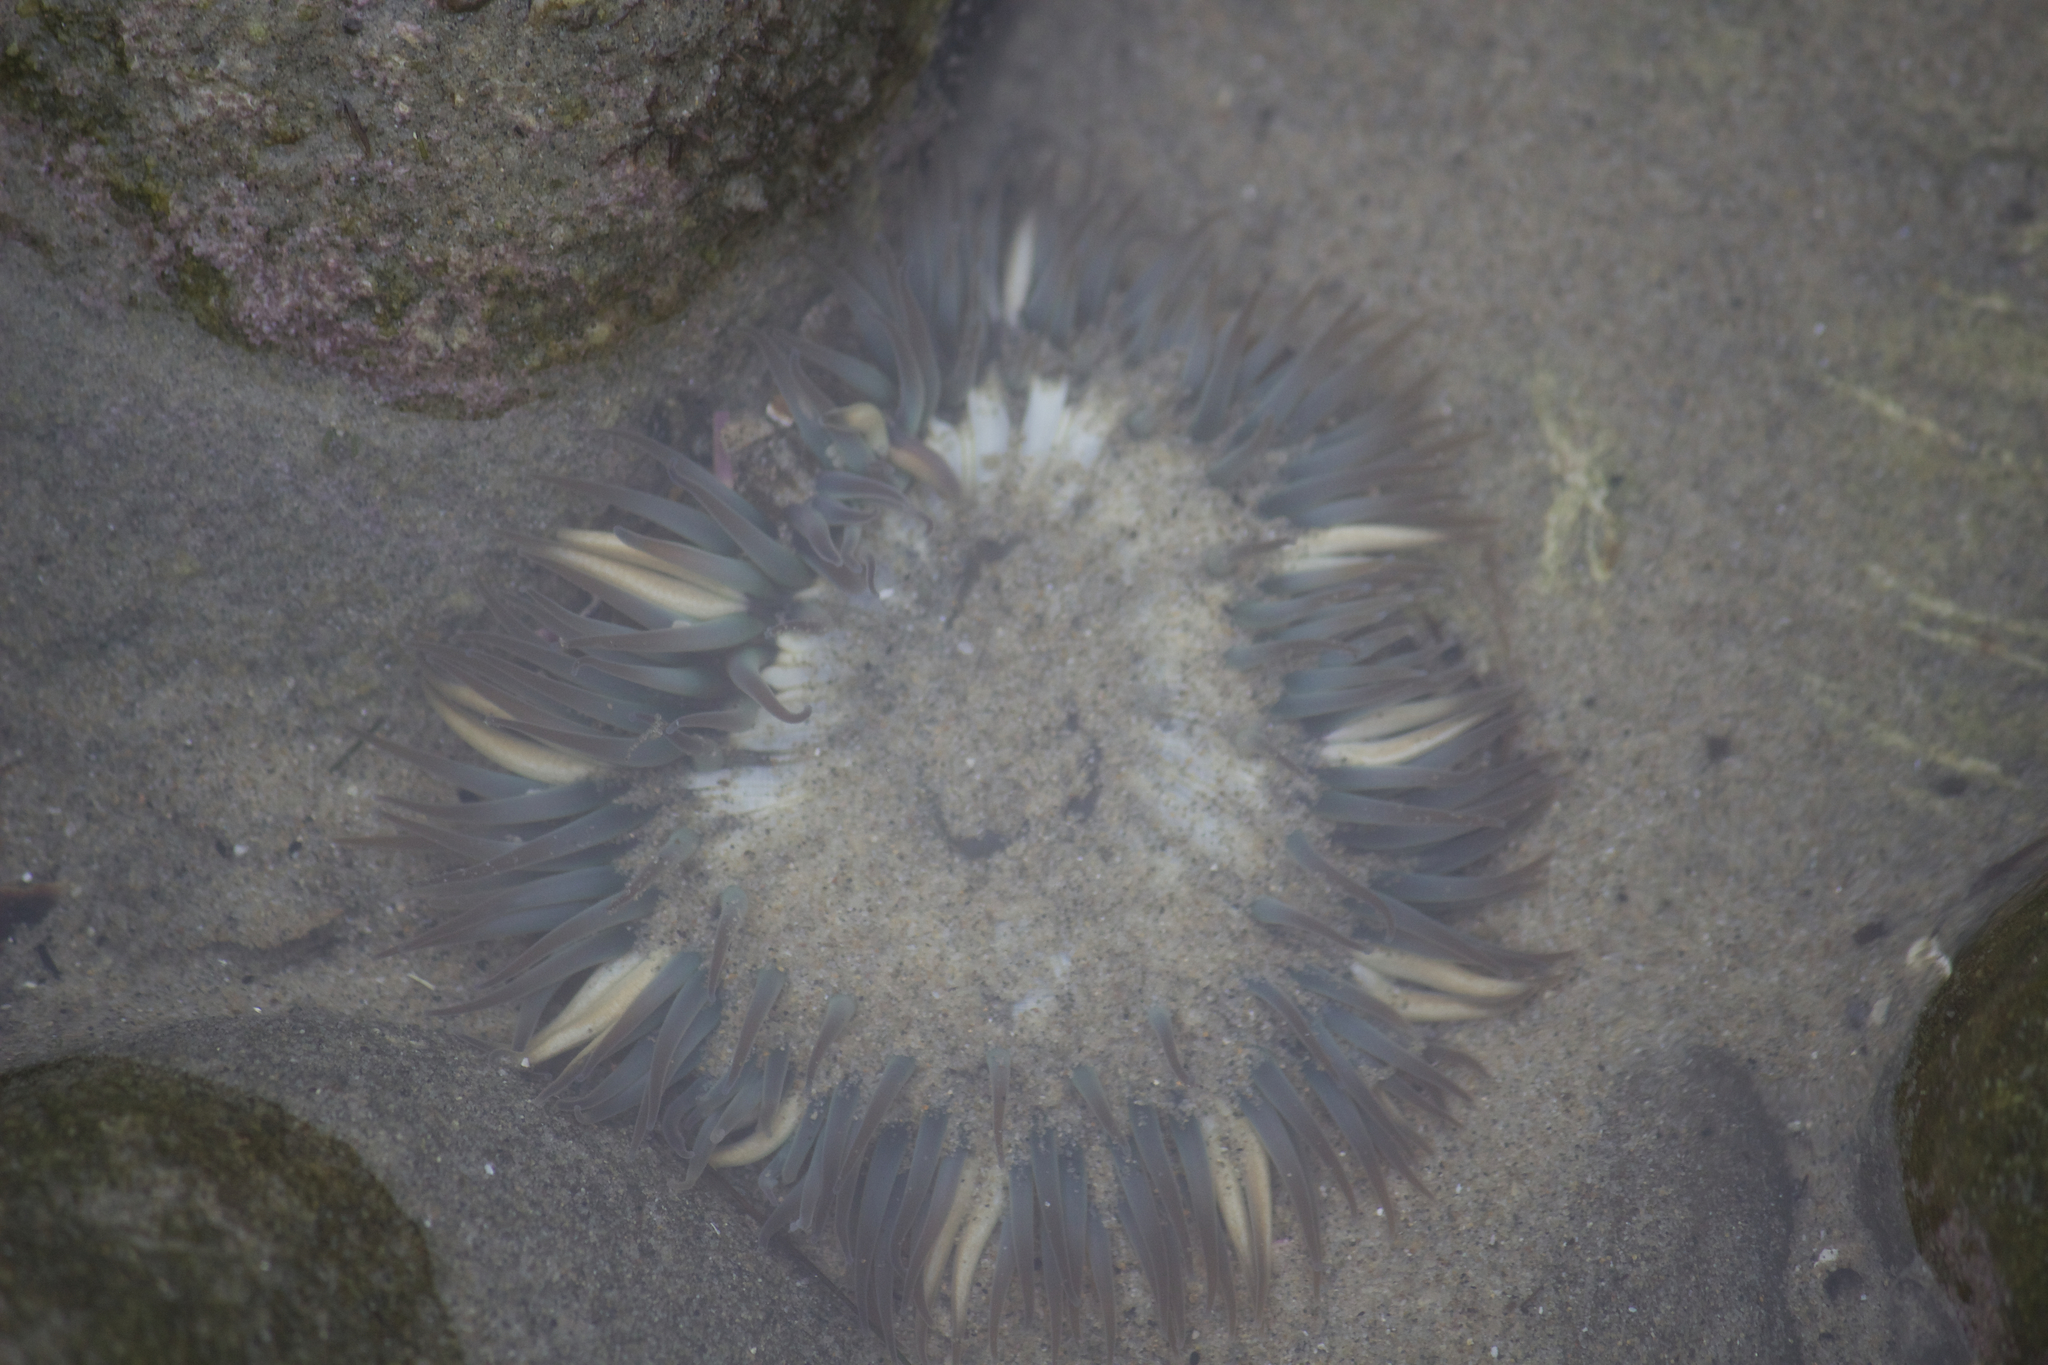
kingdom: Animalia
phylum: Cnidaria
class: Anthozoa
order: Actiniaria
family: Actiniidae
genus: Anthopleura
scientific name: Anthopleura sola
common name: Sun anemone
